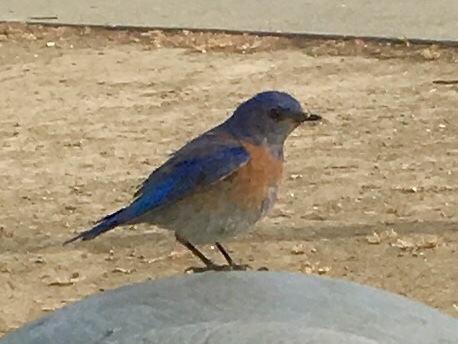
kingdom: Animalia
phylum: Chordata
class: Aves
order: Passeriformes
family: Turdidae
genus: Sialia
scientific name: Sialia mexicana
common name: Western bluebird
